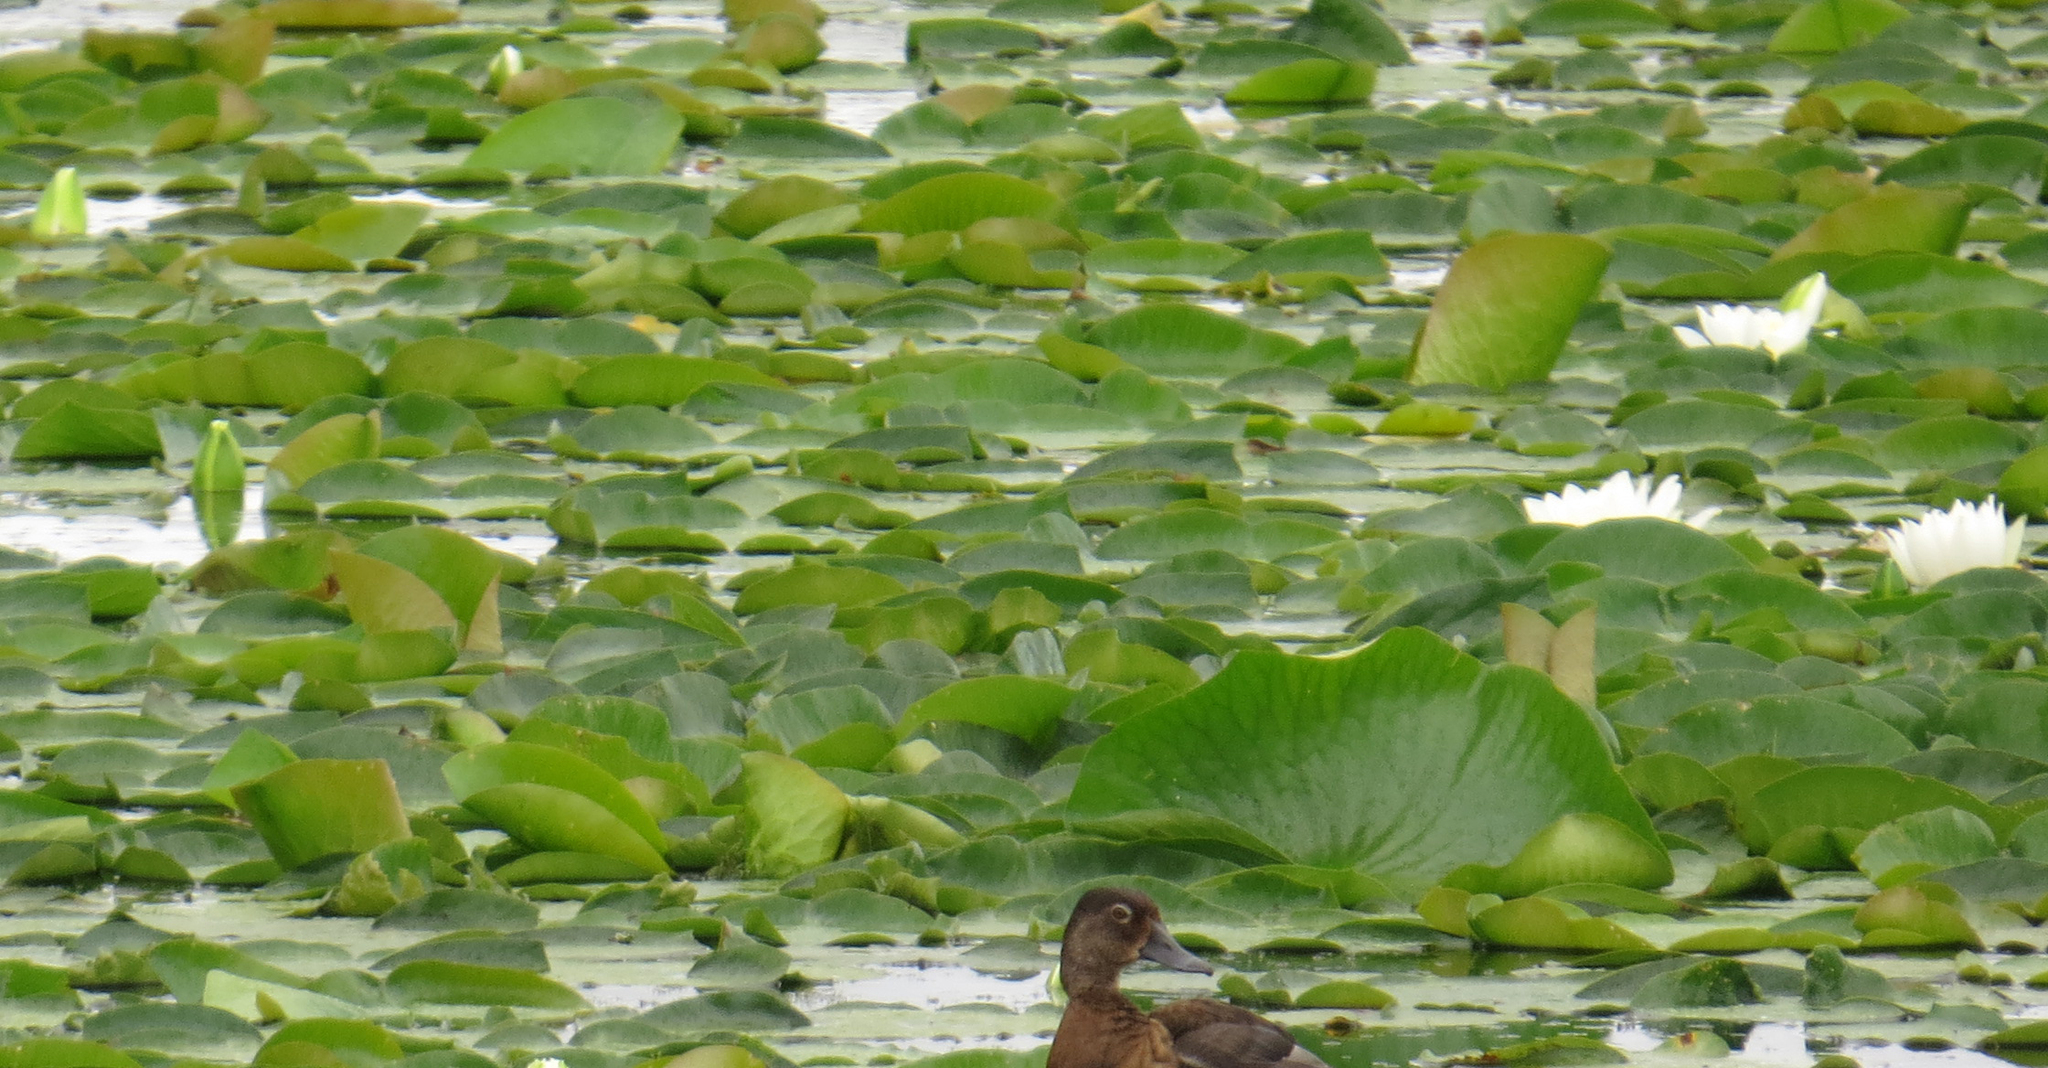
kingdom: Plantae
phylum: Tracheophyta
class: Magnoliopsida
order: Nymphaeales
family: Nymphaeaceae
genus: Nymphaea
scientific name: Nymphaea odorata
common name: Fragrant water-lily
